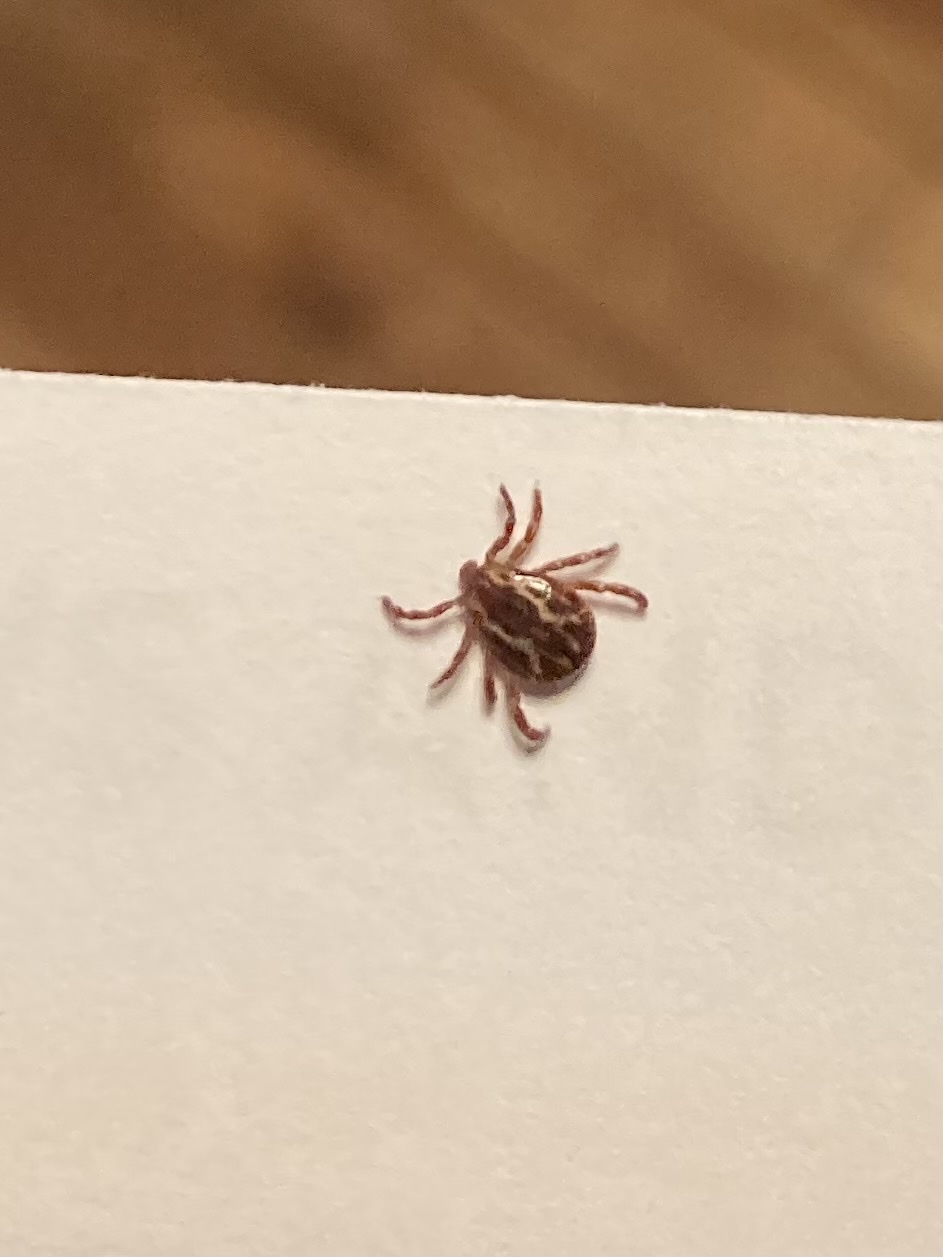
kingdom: Animalia
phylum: Arthropoda
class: Arachnida
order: Ixodida
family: Ixodidae
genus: Dermacentor
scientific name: Dermacentor variabilis
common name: American dog tick
